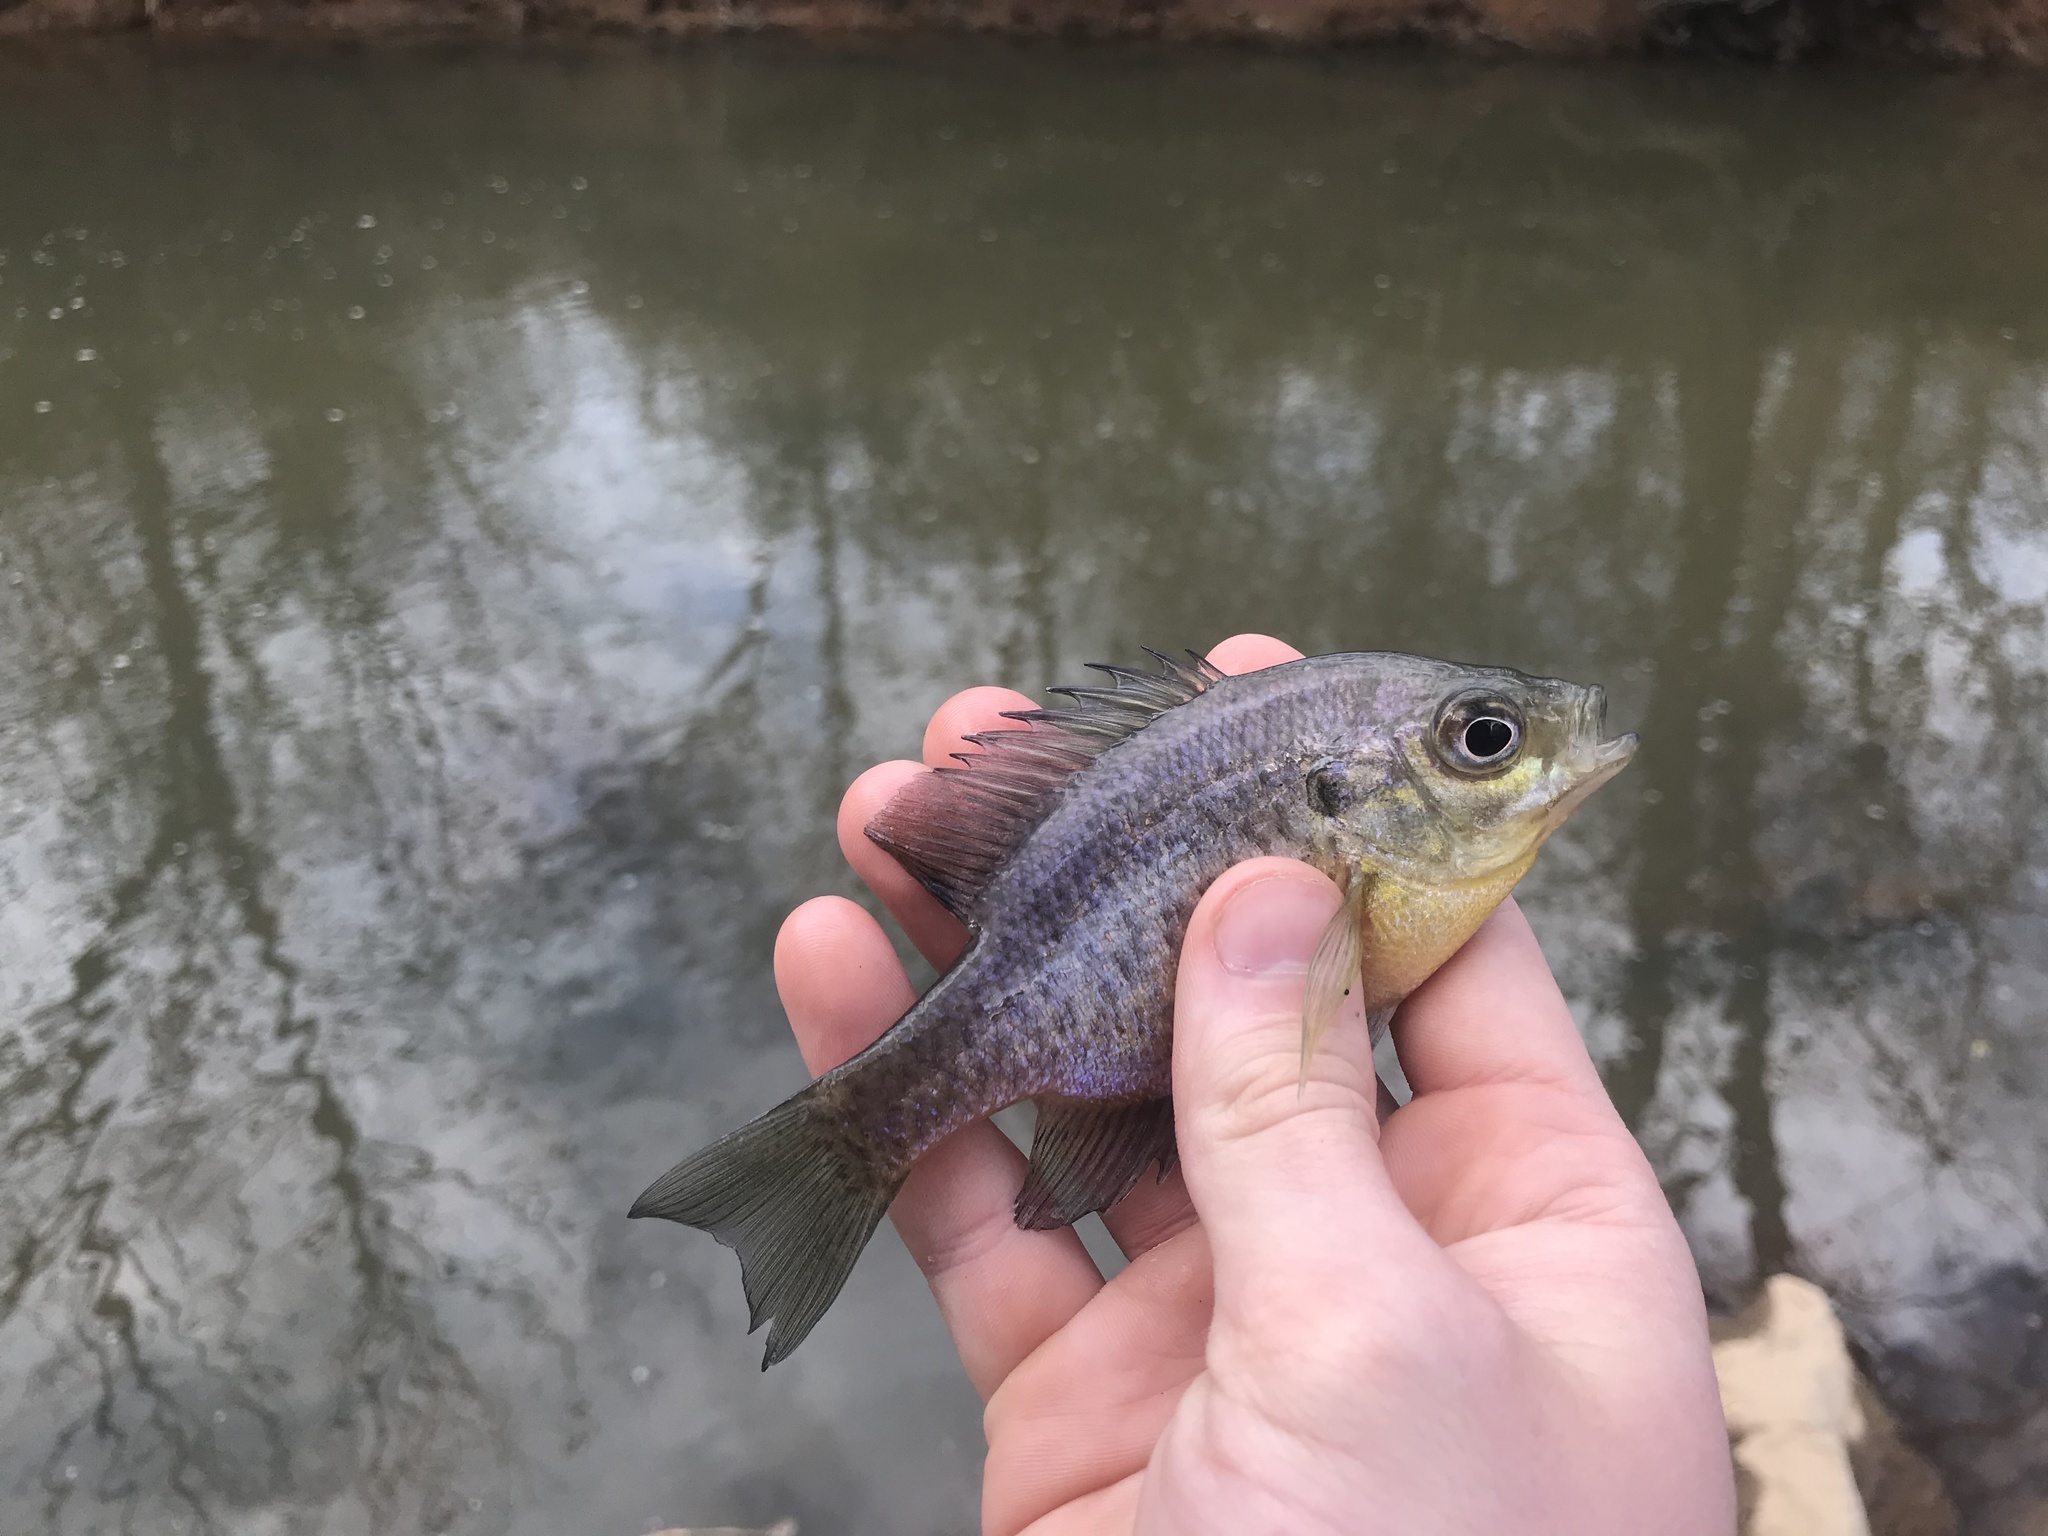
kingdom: Animalia
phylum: Chordata
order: Perciformes
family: Centrarchidae
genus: Lepomis
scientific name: Lepomis macrochirus
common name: Bluegill
